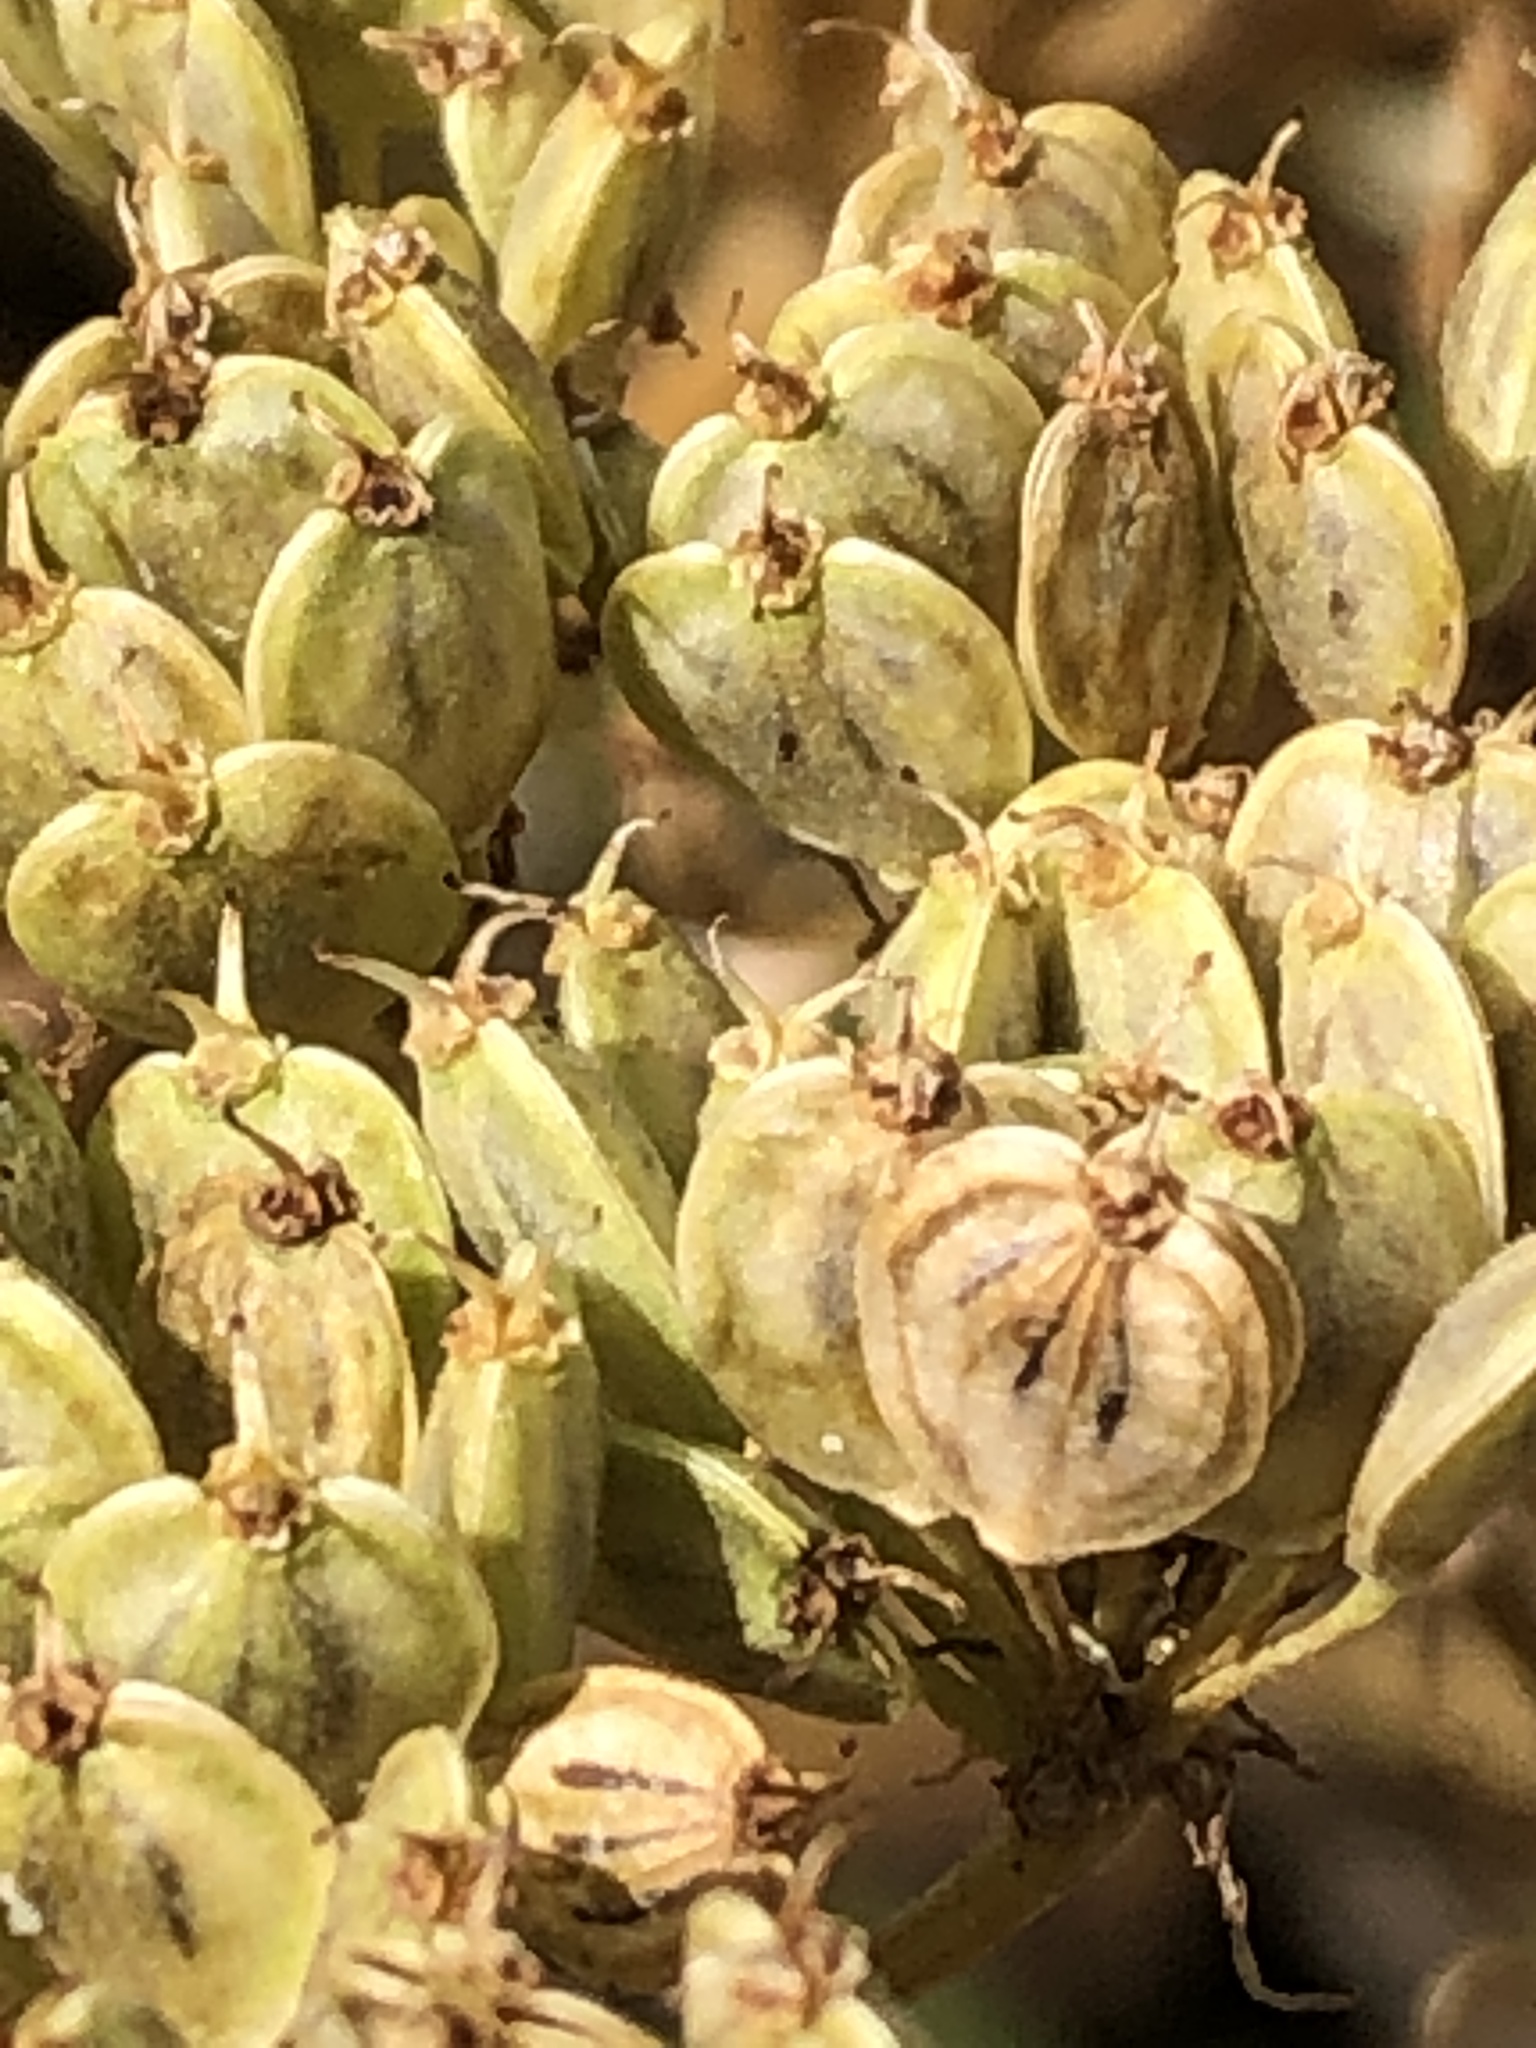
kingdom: Plantae
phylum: Tracheophyta
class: Magnoliopsida
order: Apiales
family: Apiaceae
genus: Heracleum
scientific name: Heracleum maximum
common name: American cow parsnip
